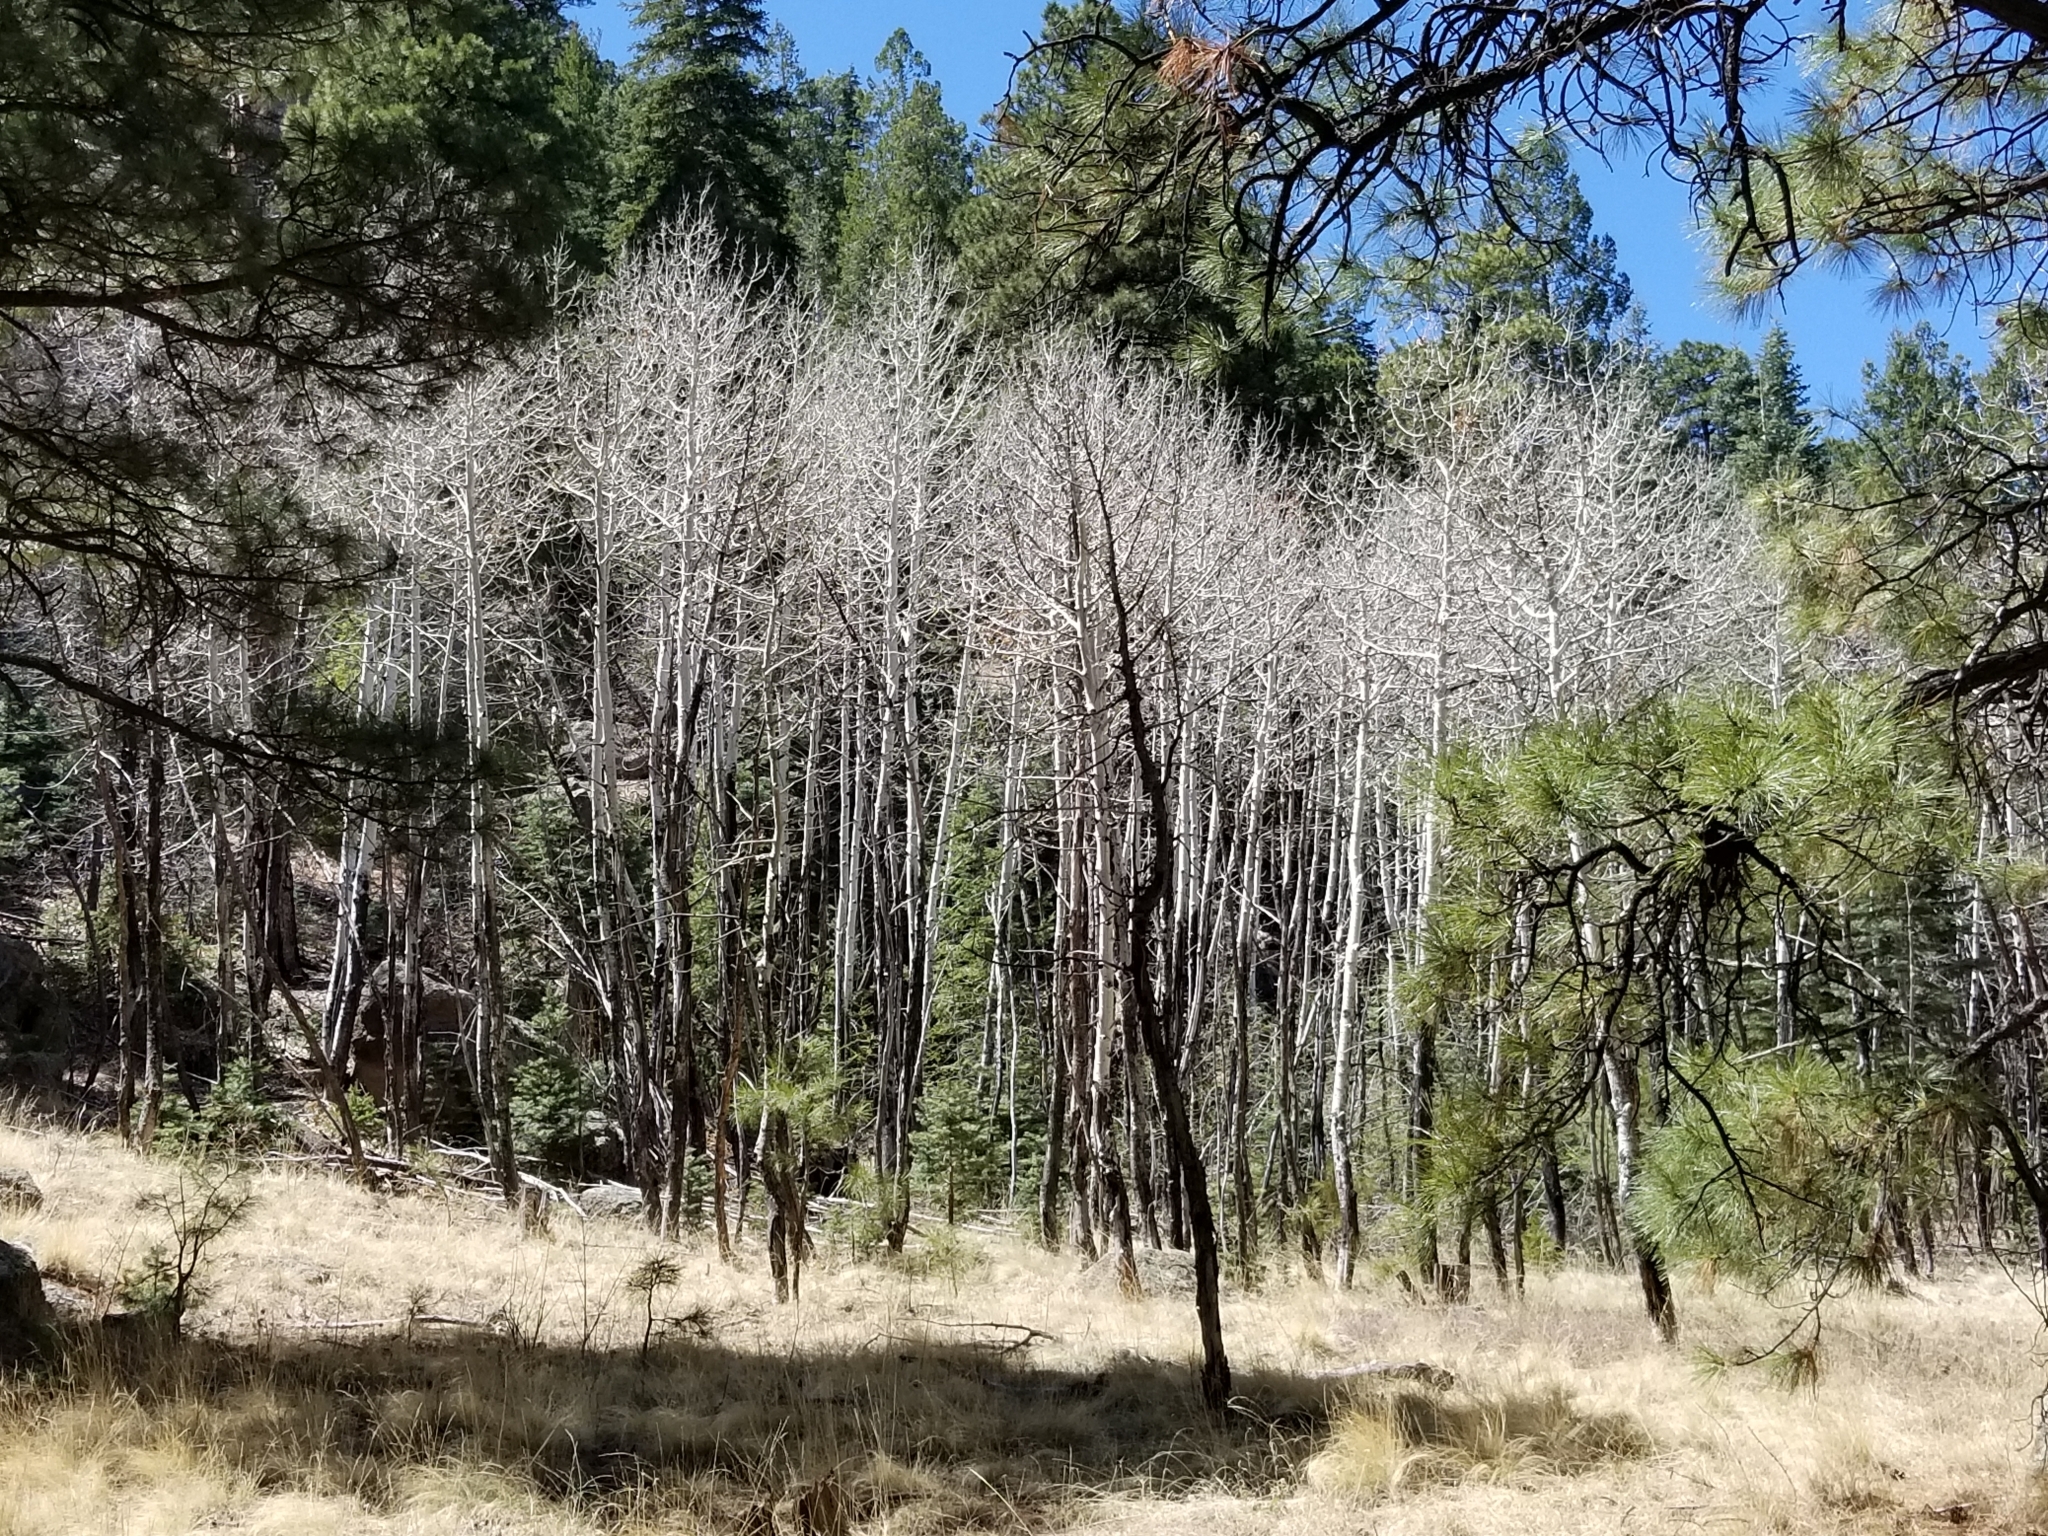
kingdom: Plantae
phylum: Tracheophyta
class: Magnoliopsida
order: Malpighiales
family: Salicaceae
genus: Populus
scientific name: Populus tremuloides
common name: Quaking aspen
